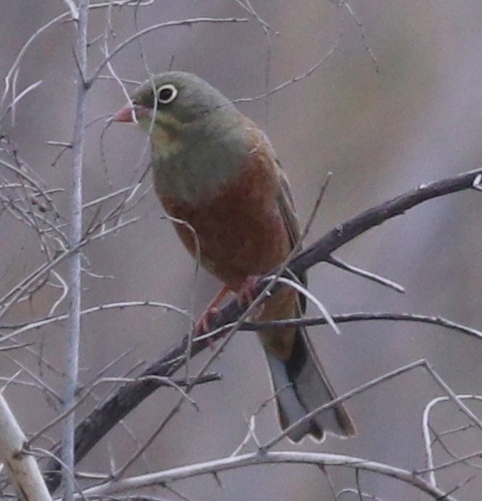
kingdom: Animalia
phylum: Chordata
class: Aves
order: Passeriformes
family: Emberizidae
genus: Emberiza
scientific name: Emberiza hortulana
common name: Ortolan bunting
